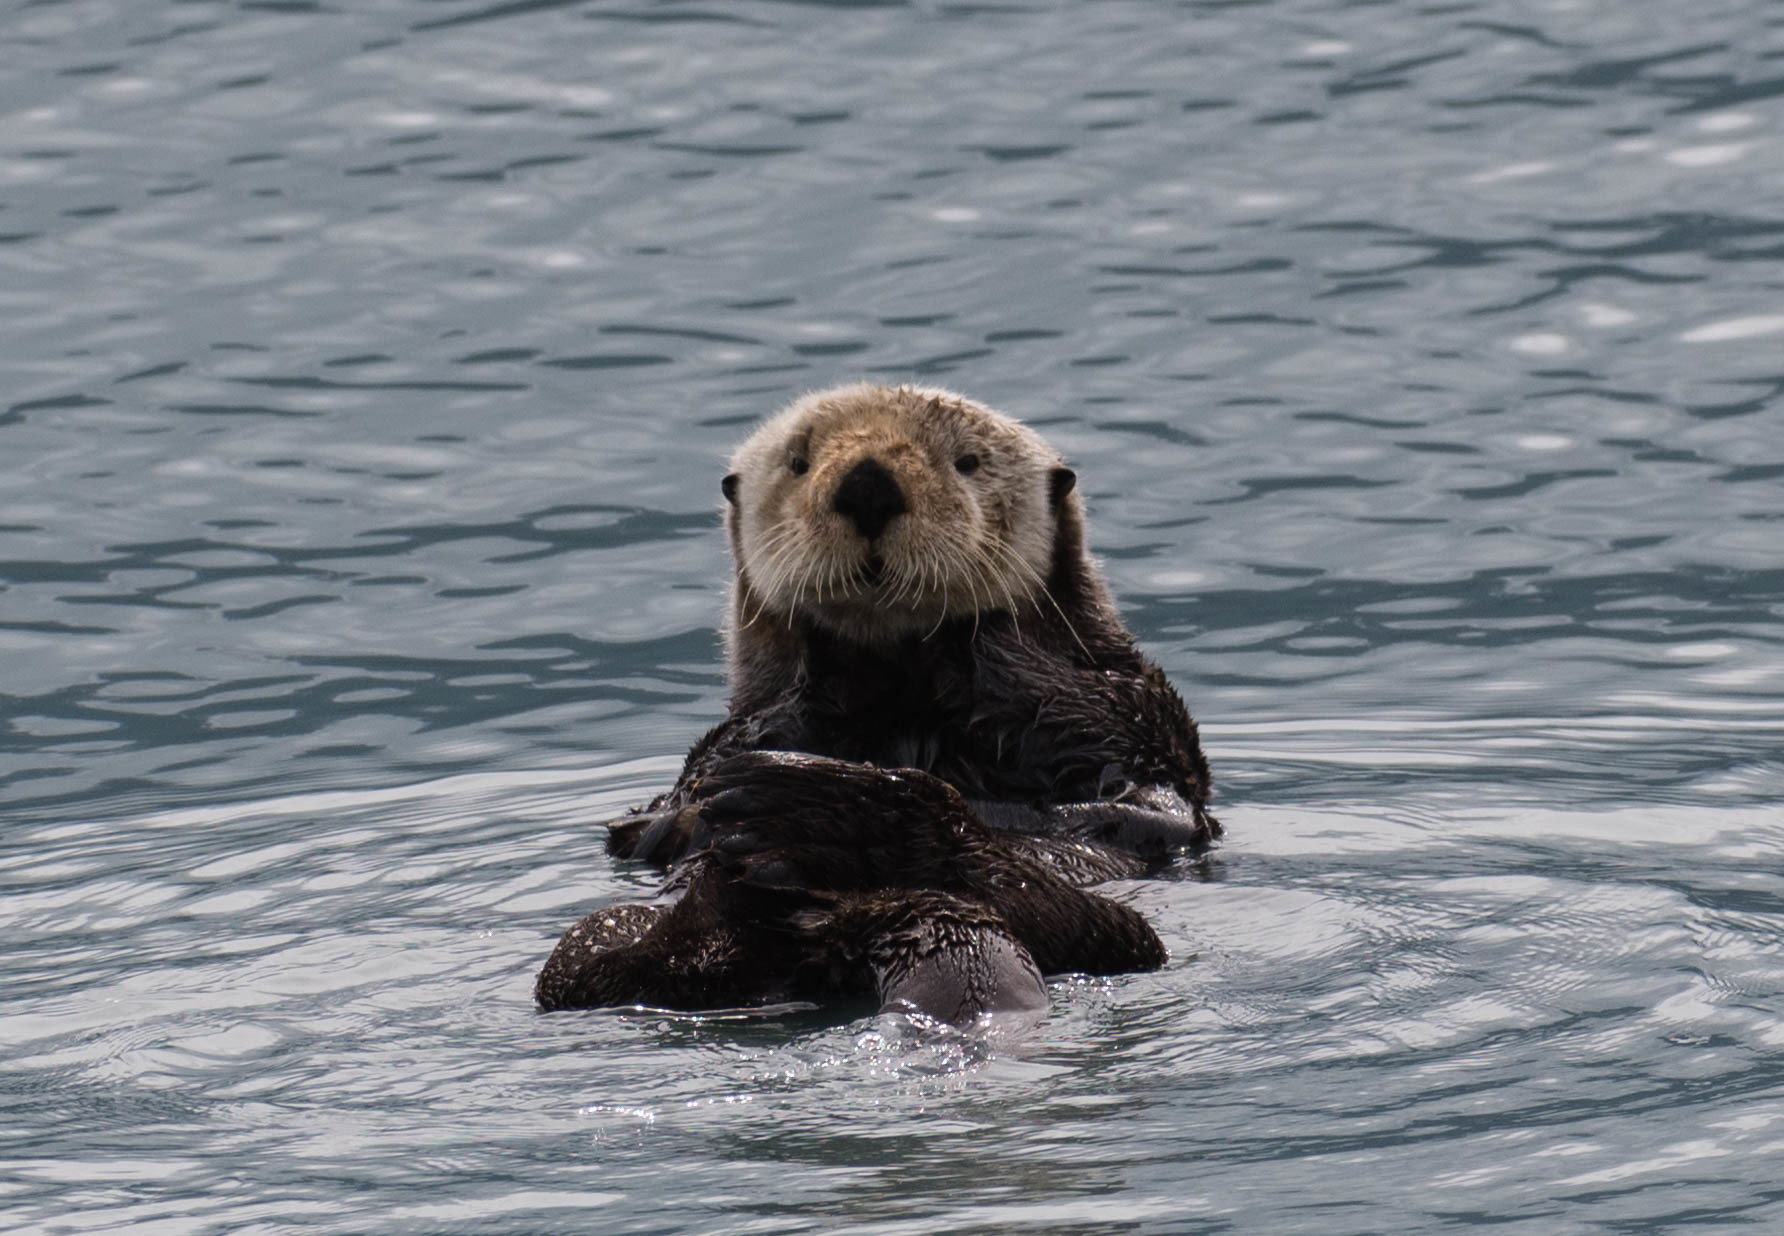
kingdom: Animalia
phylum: Chordata
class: Mammalia
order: Carnivora
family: Mustelidae
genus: Enhydra
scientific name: Enhydra lutris
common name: Sea otter
